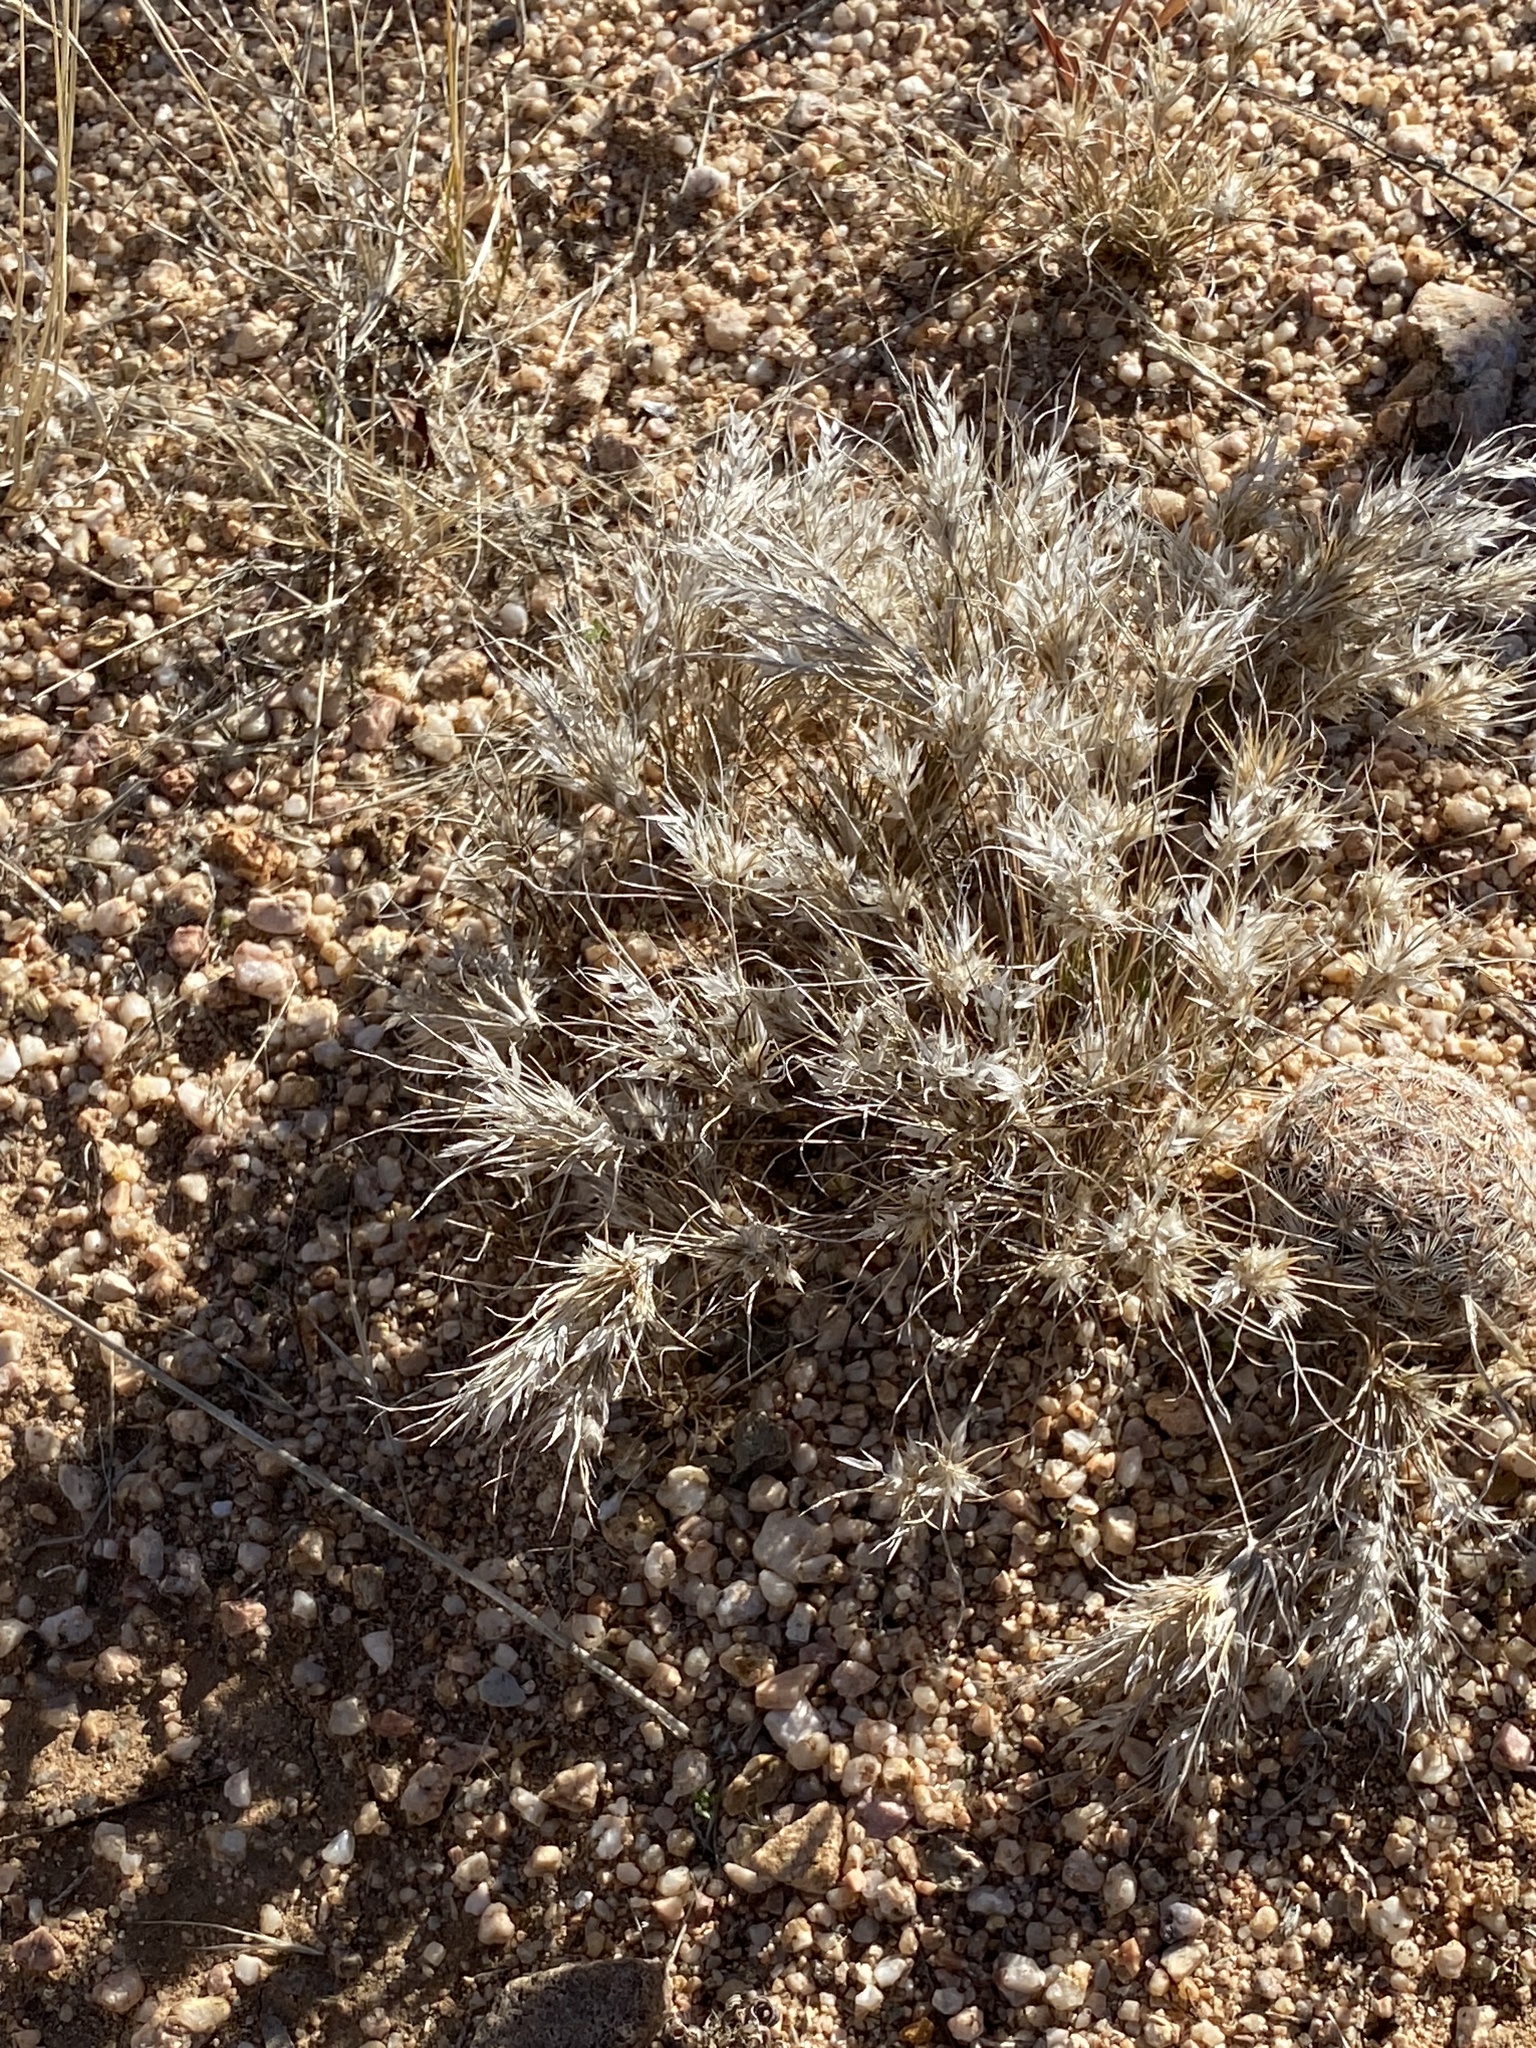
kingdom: Plantae
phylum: Tracheophyta
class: Liliopsida
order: Poales
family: Poaceae
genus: Dasyochloa
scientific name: Dasyochloa pulchella
